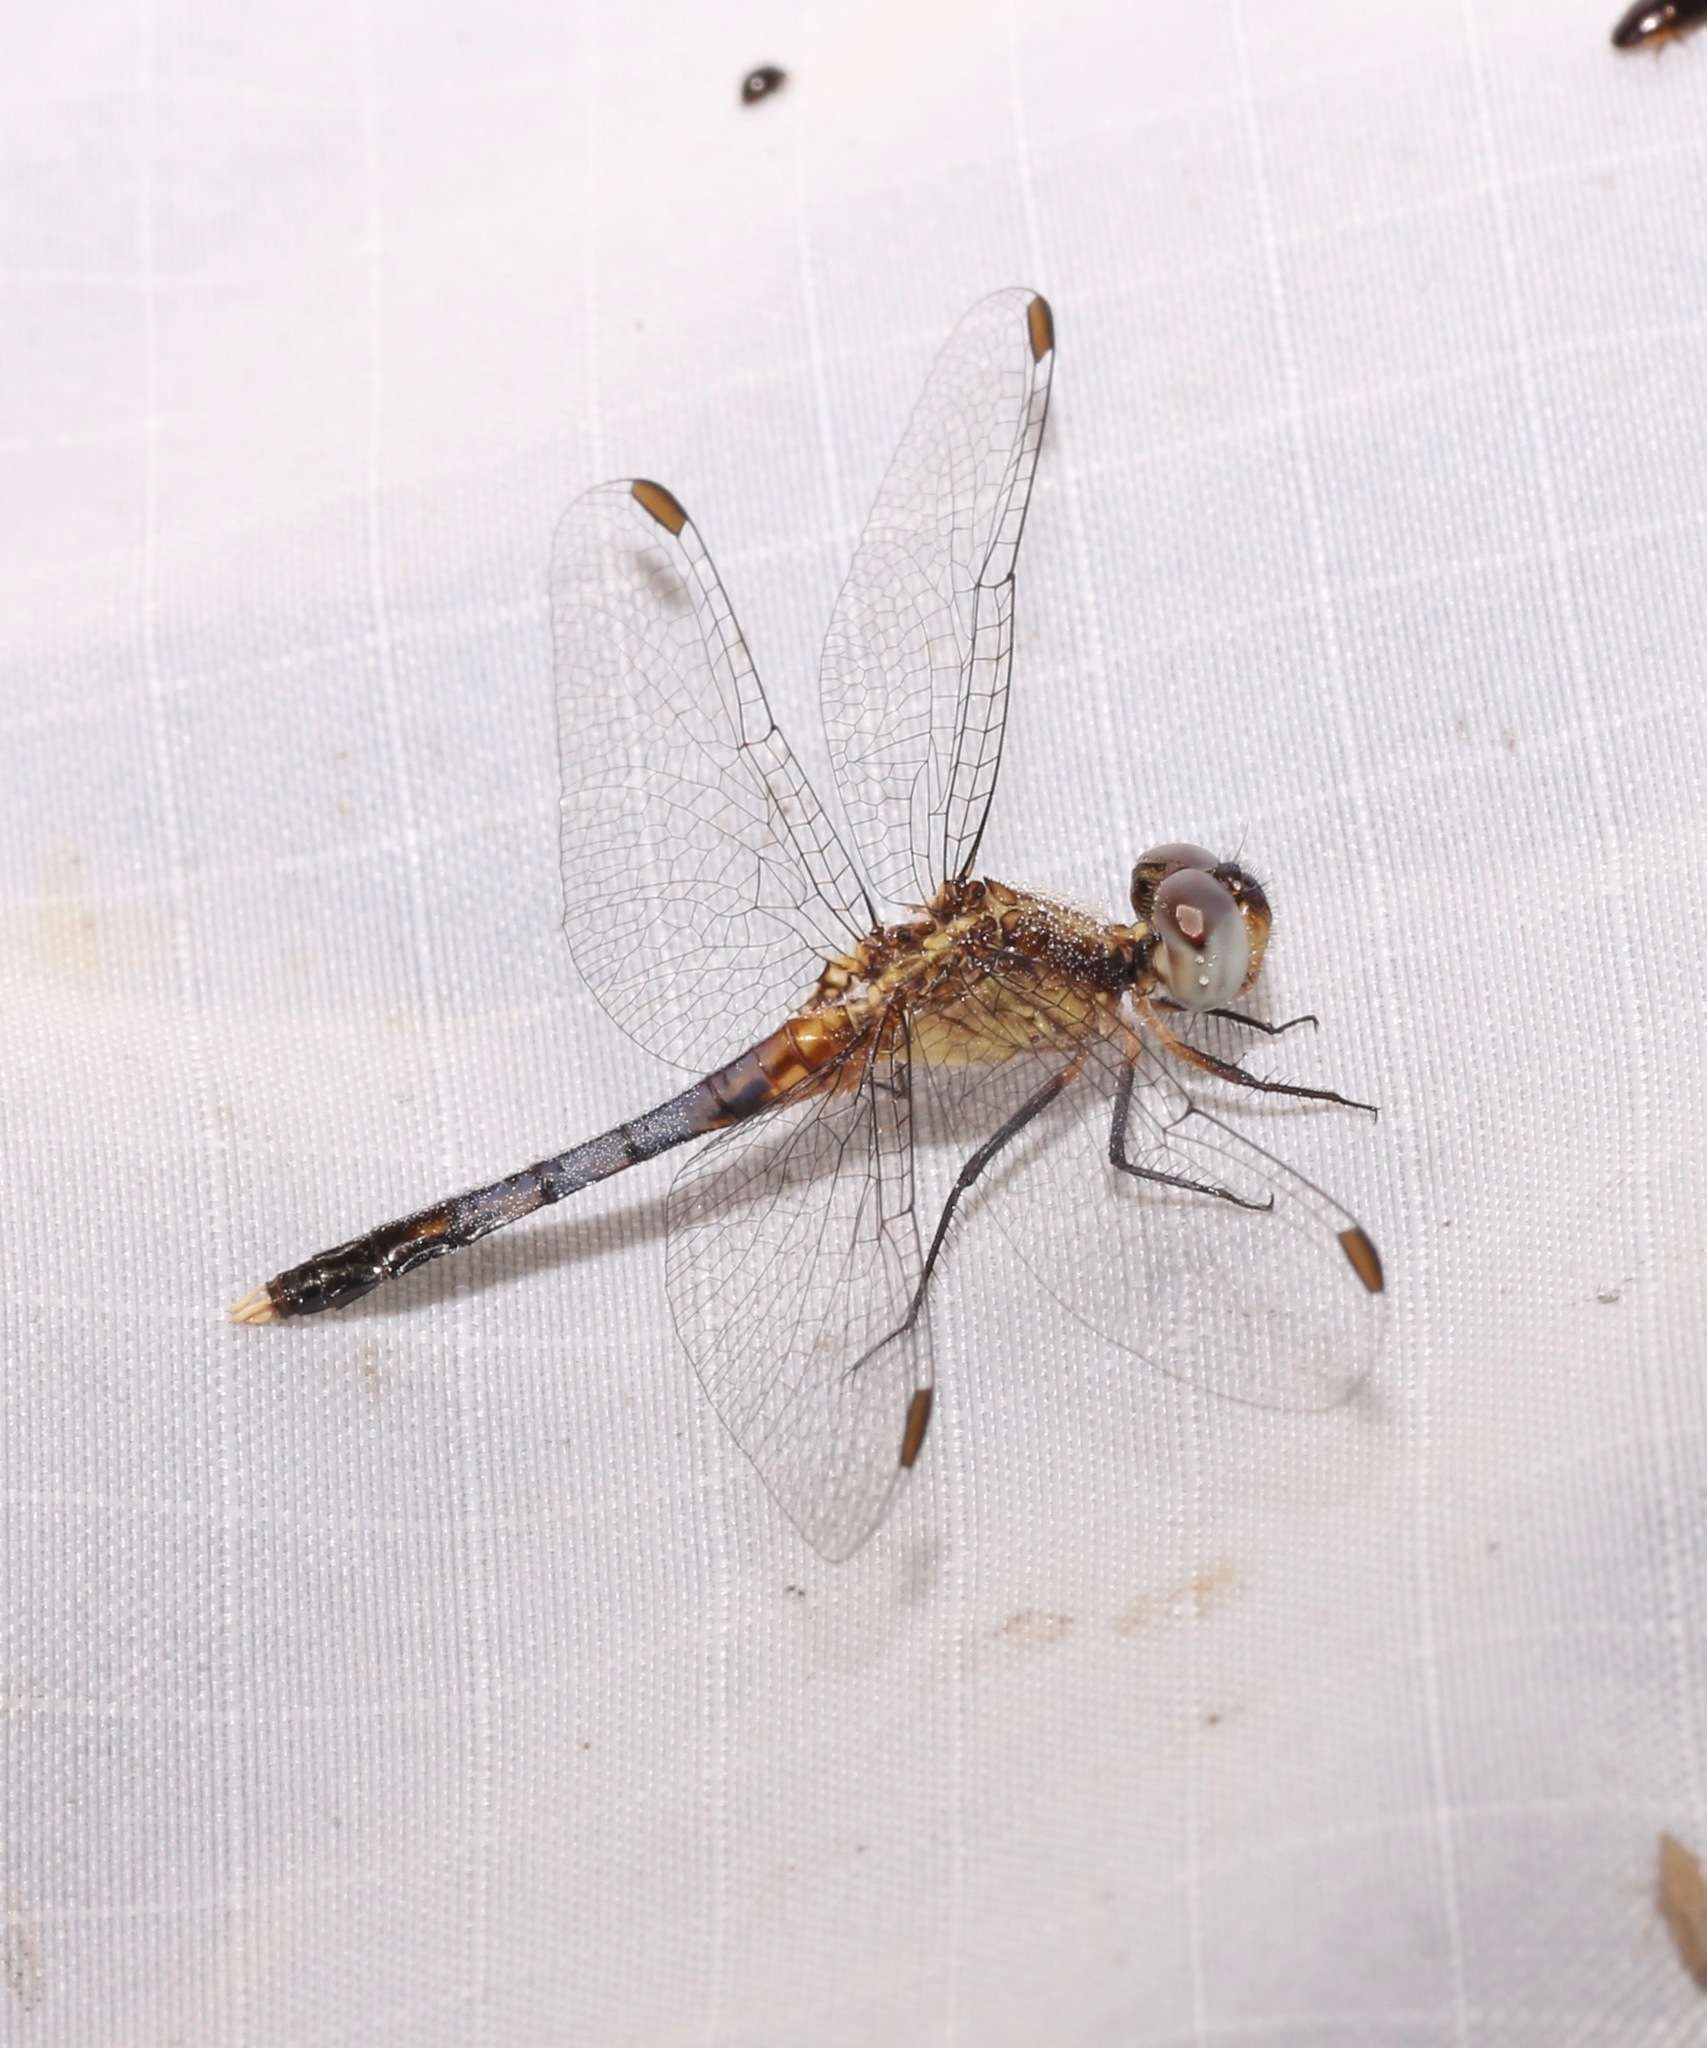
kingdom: Animalia
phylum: Arthropoda
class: Insecta
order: Odonata
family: Libellulidae
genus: Erythrodiplax
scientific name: Erythrodiplax minuscula
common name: Little blue dragonlet
